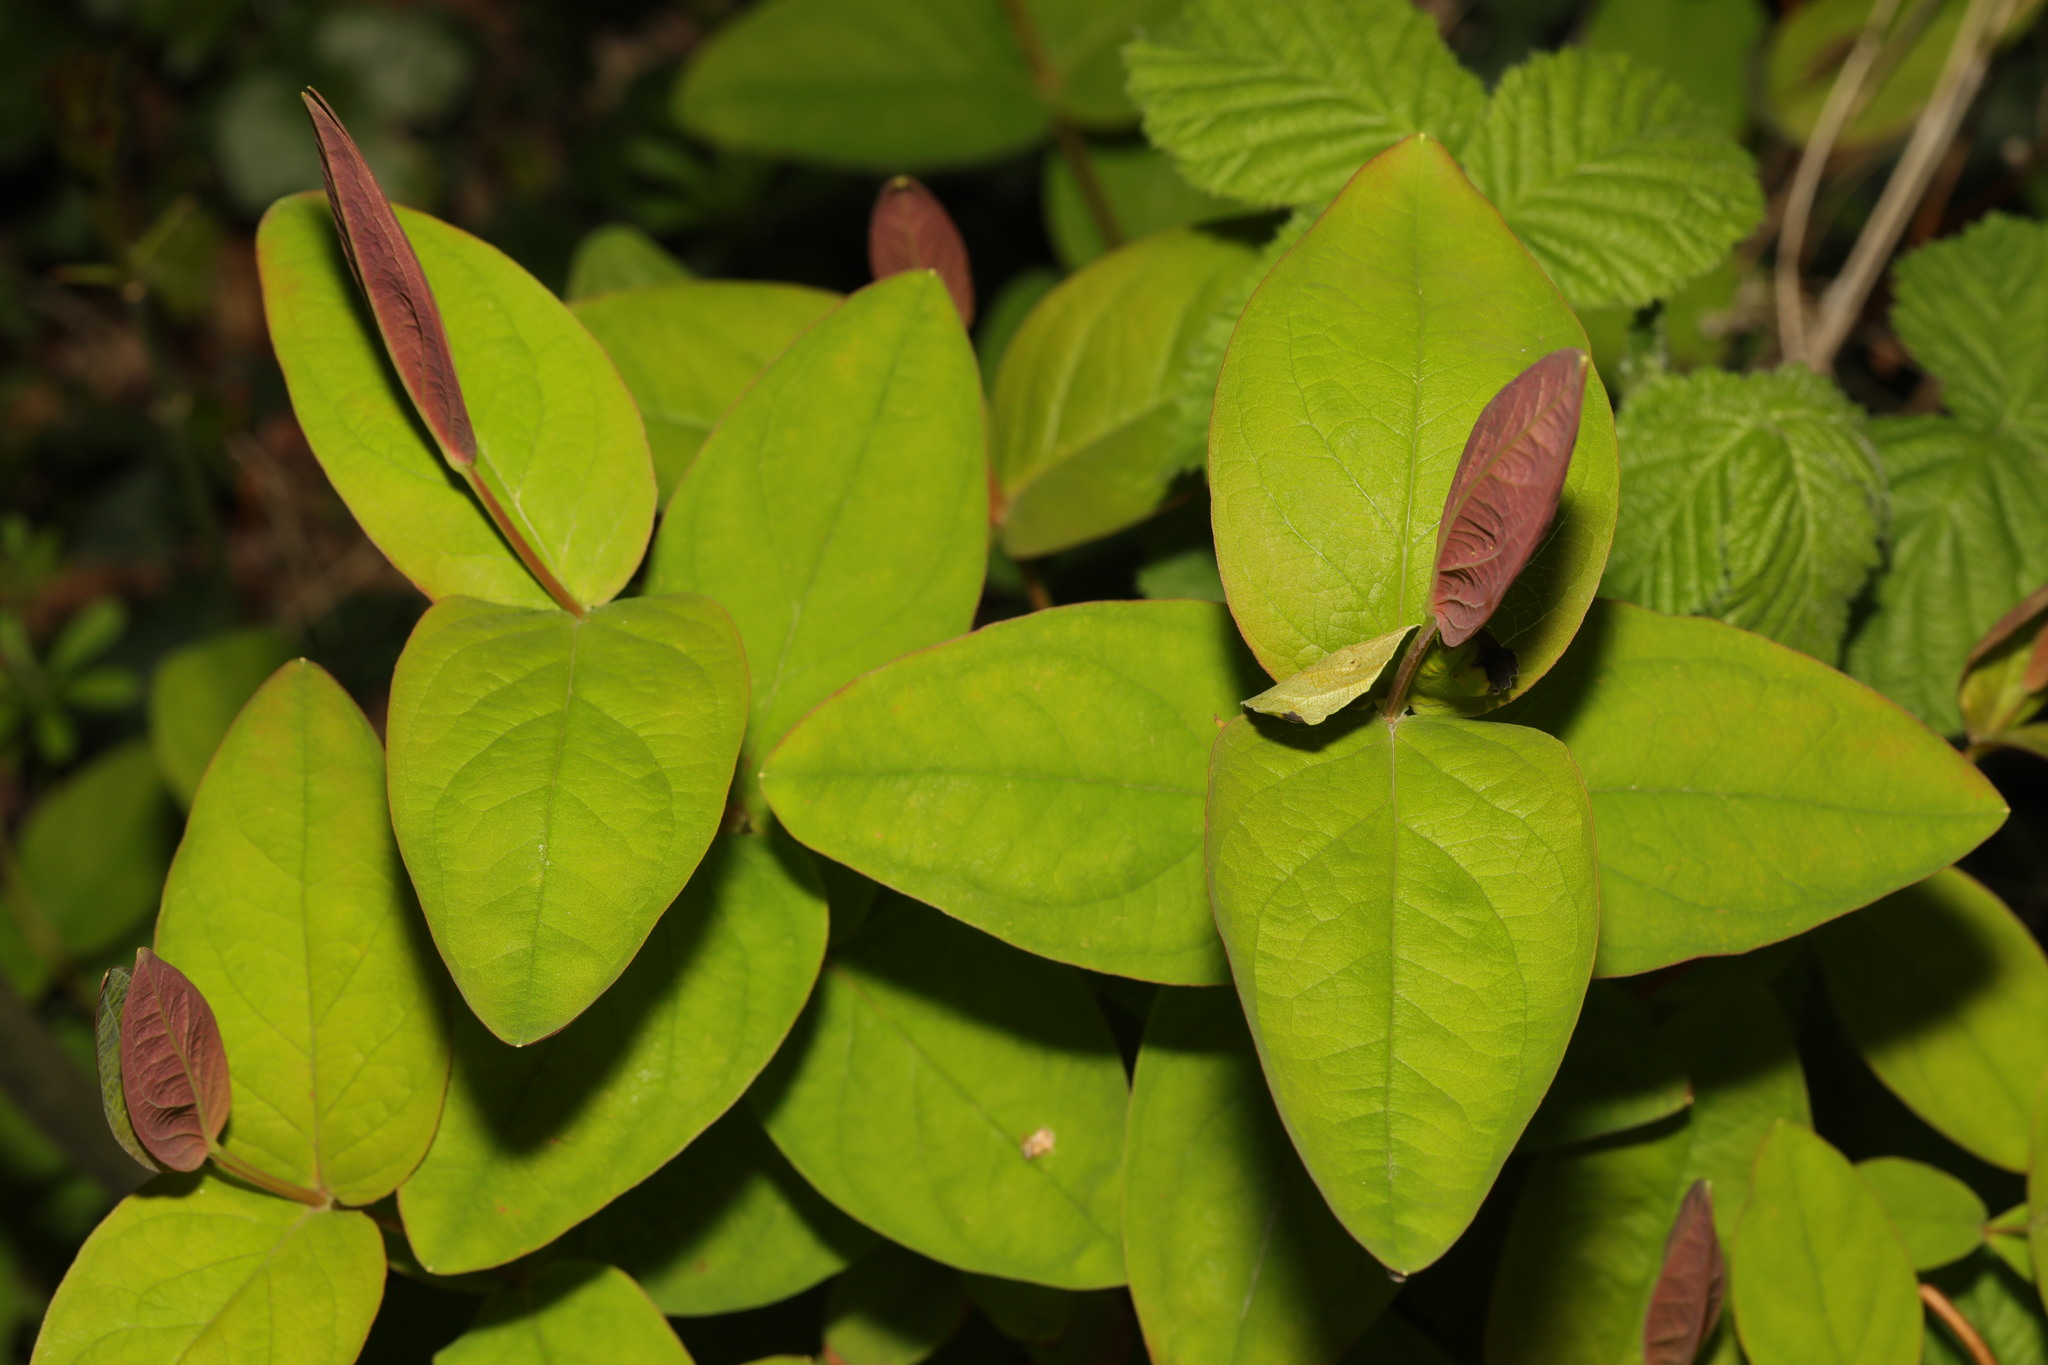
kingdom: Plantae
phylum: Tracheophyta
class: Magnoliopsida
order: Malpighiales
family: Hypericaceae
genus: Hypericum
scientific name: Hypericum androsaemum
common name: Sweet-amber
